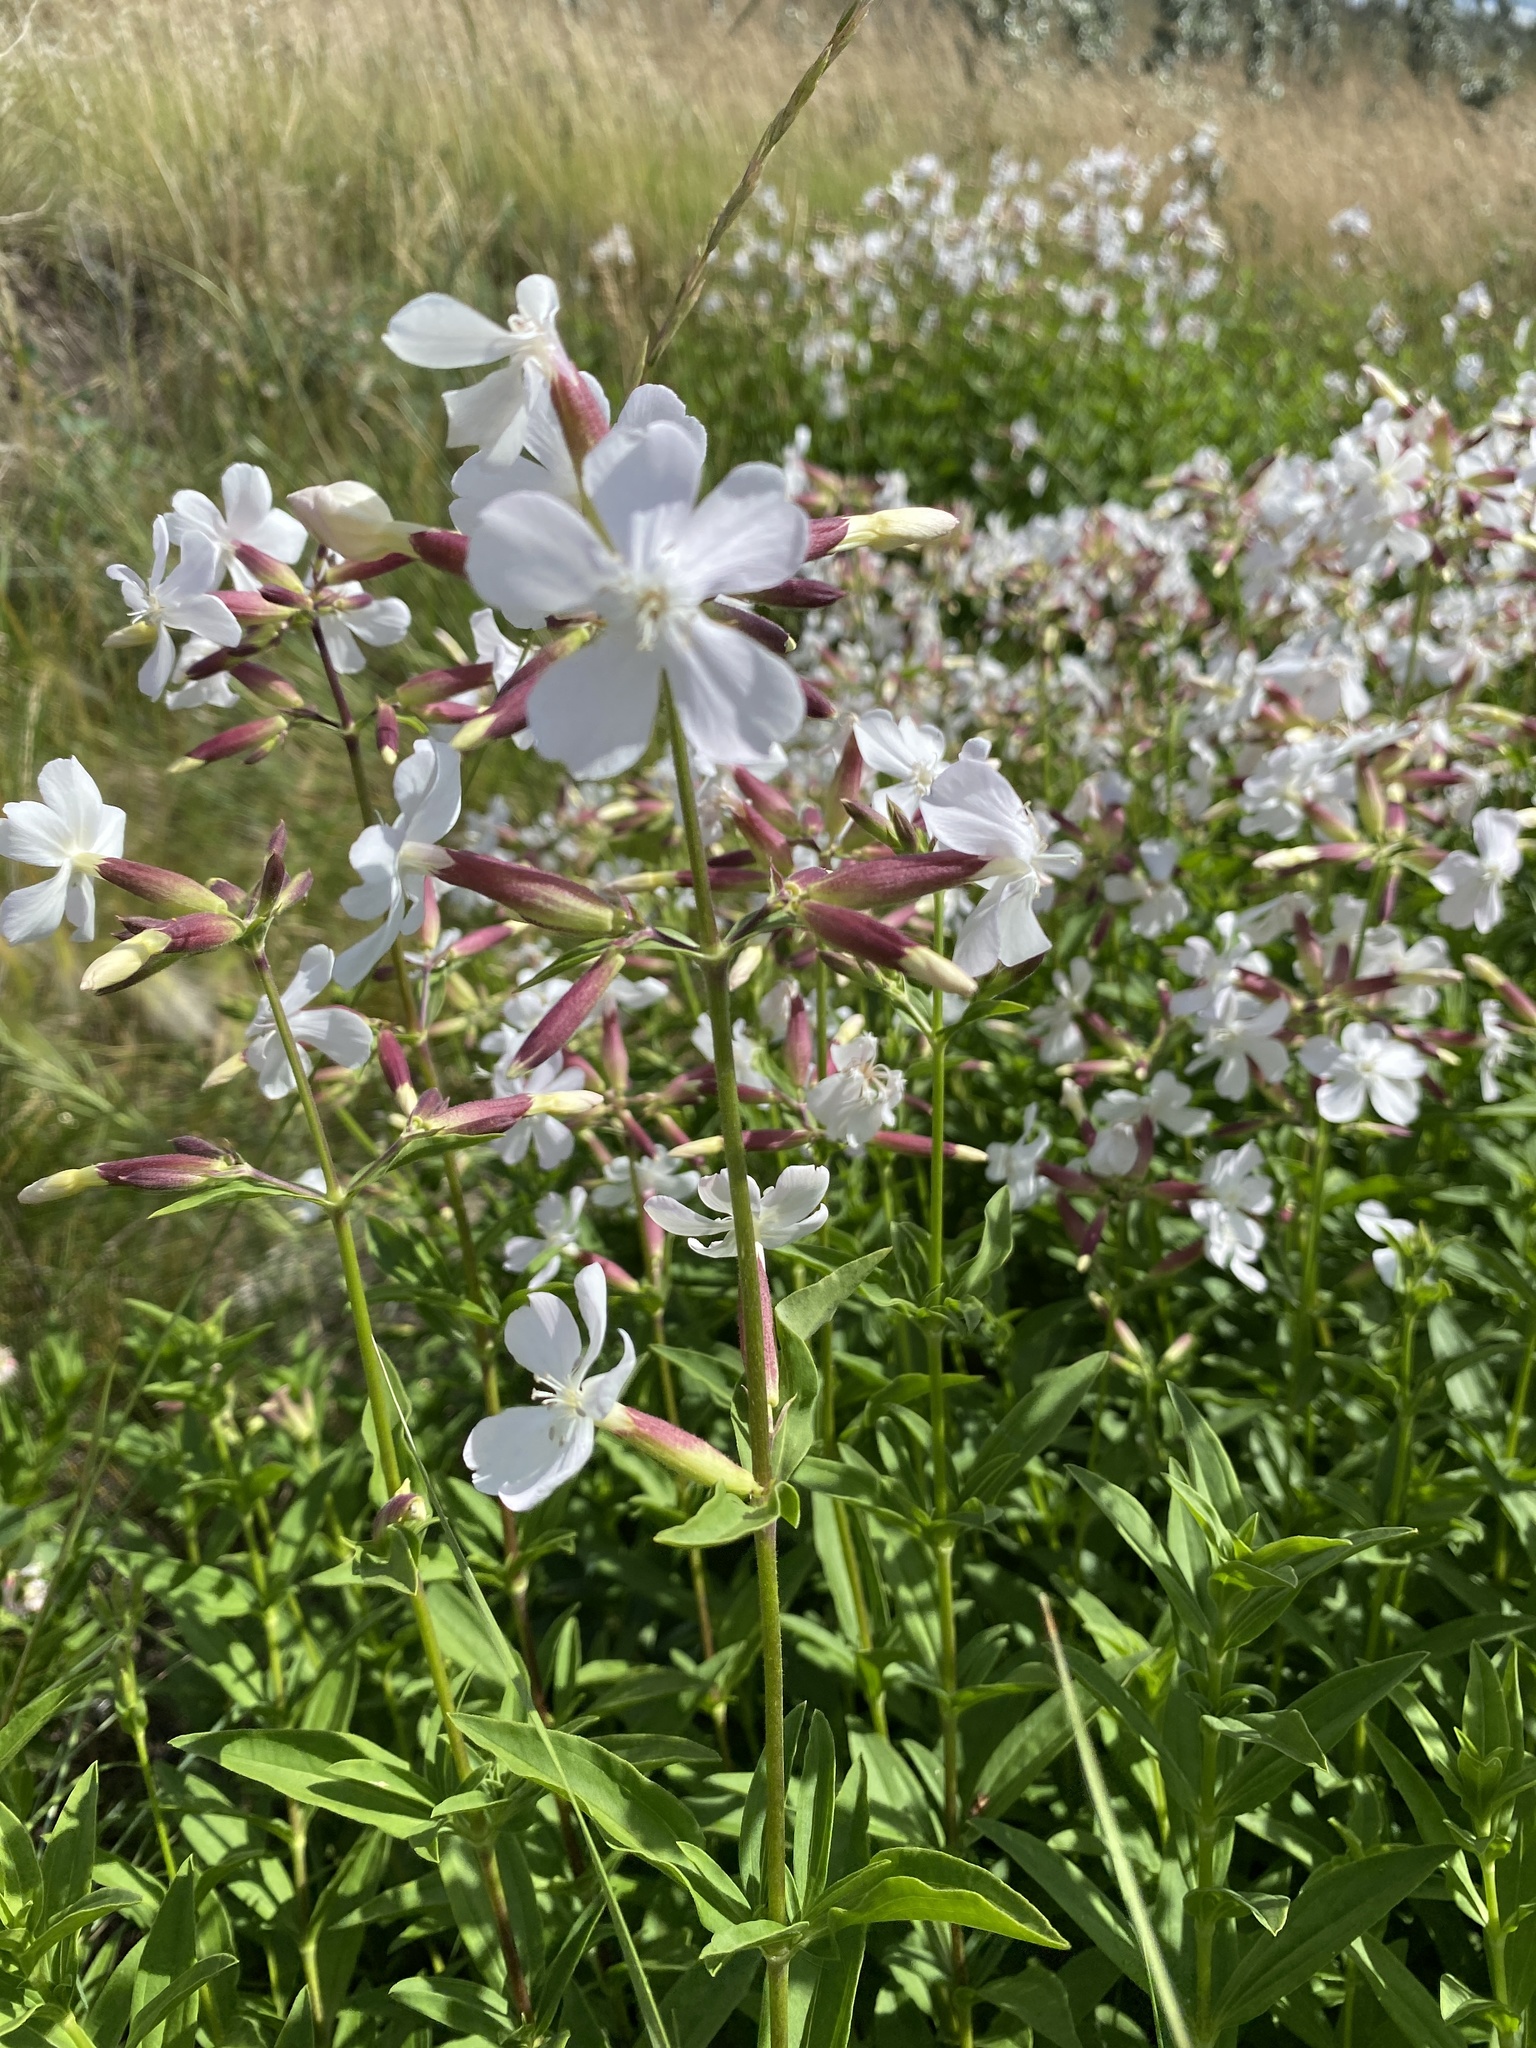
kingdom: Plantae
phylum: Tracheophyta
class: Magnoliopsida
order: Caryophyllales
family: Caryophyllaceae
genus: Saponaria
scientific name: Saponaria officinalis
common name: Soapwort
